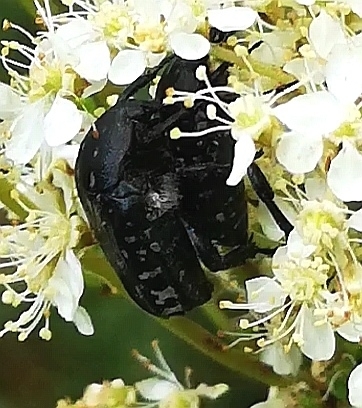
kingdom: Animalia
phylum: Arthropoda
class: Insecta
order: Coleoptera
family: Scarabaeidae
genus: Oxythyrea
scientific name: Oxythyrea funesta
